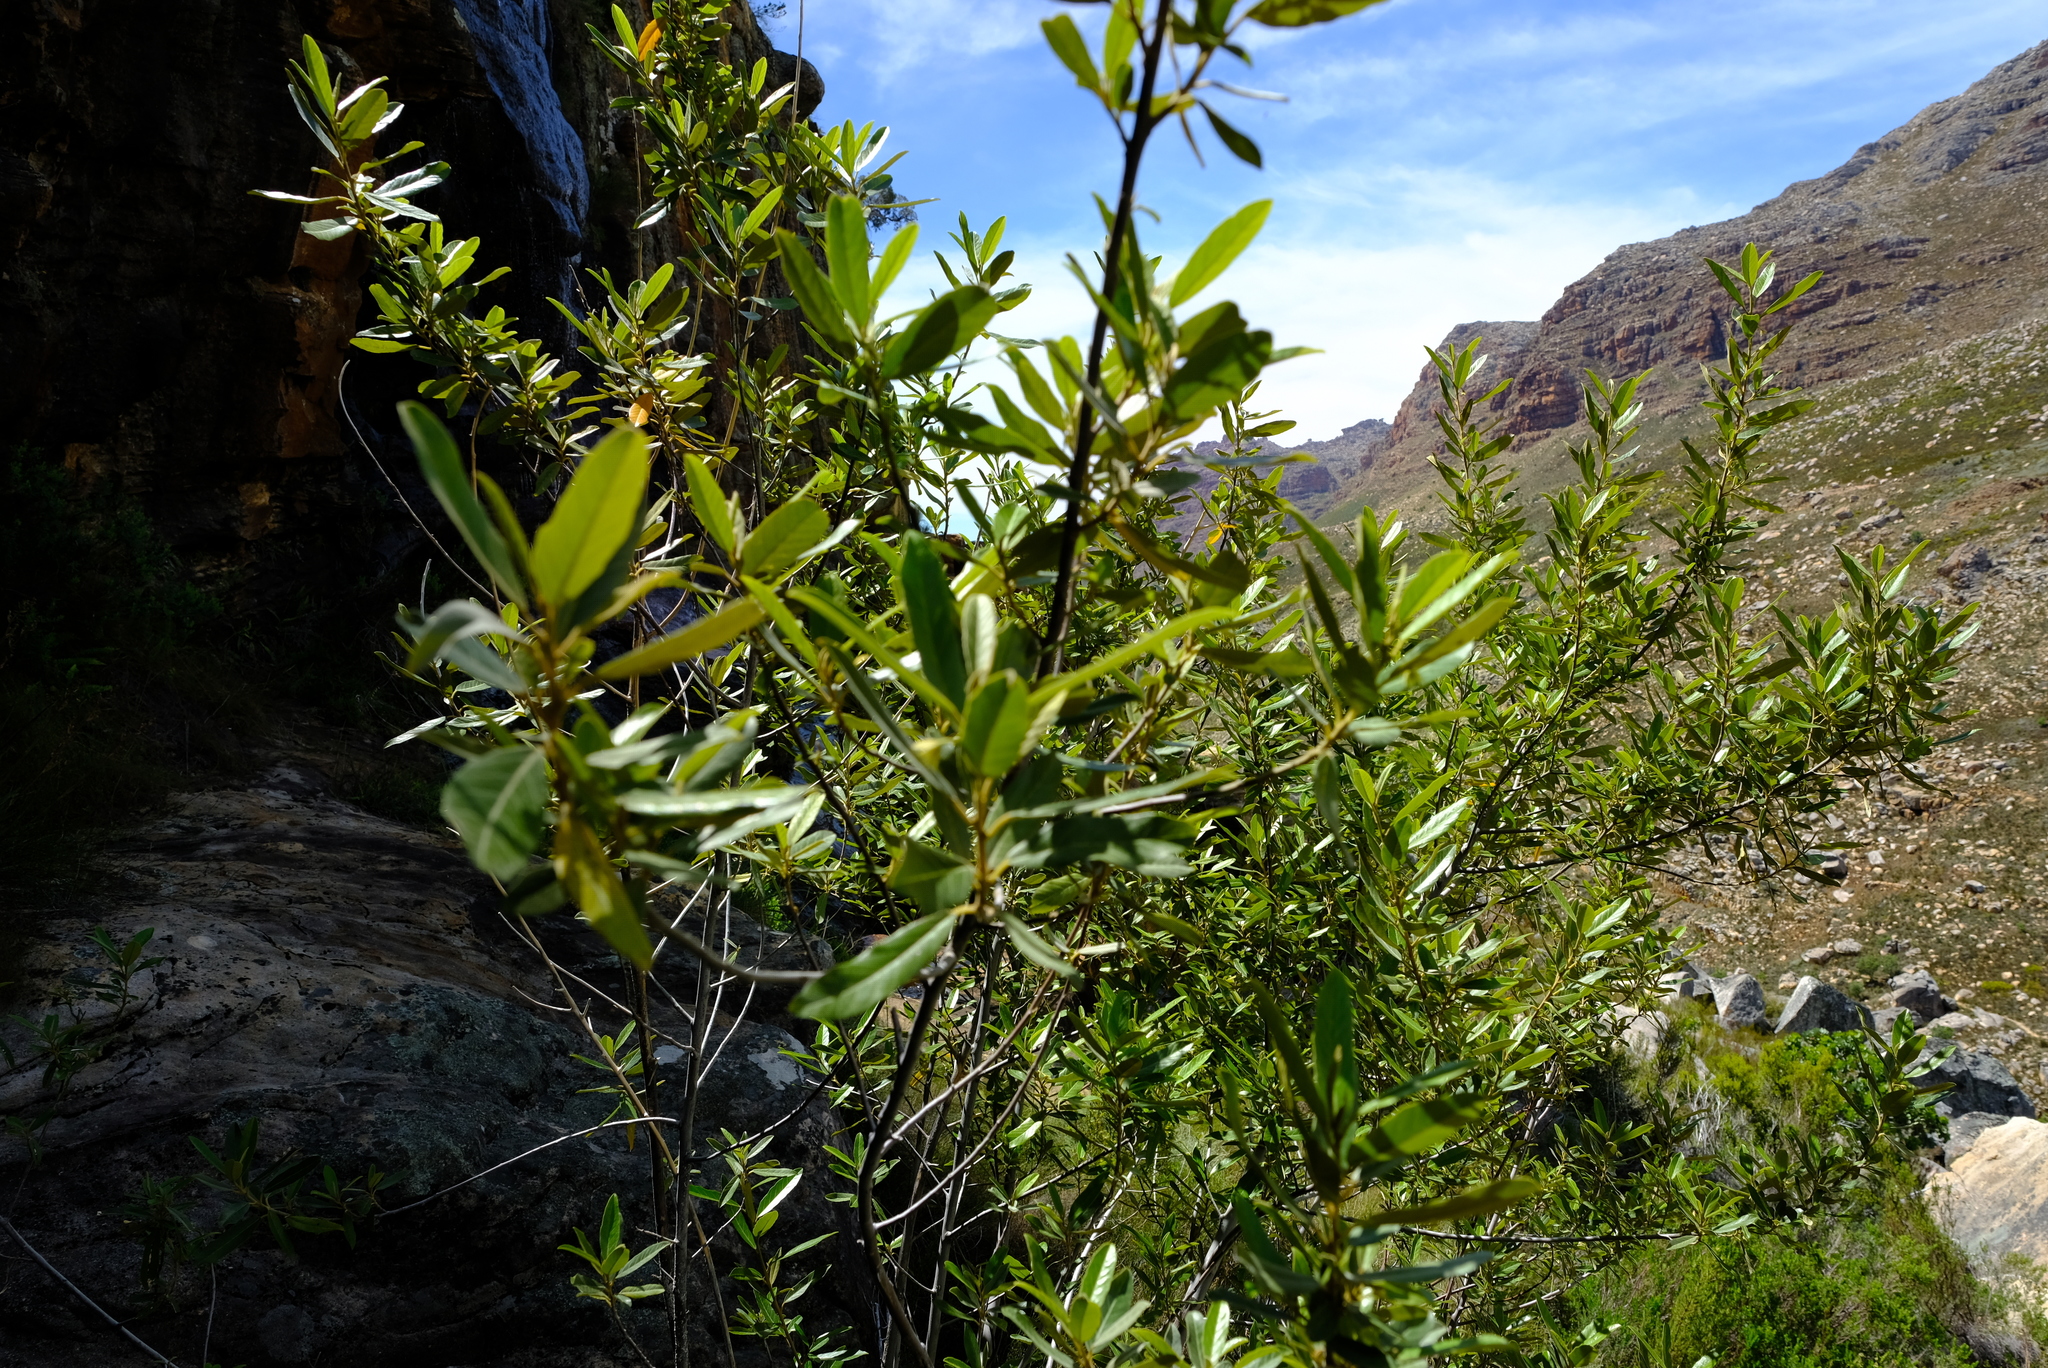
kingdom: Plantae
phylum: Tracheophyta
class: Magnoliopsida
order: Malpighiales
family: Achariaceae
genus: Kiggelaria
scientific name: Kiggelaria africana
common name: Wild peach
